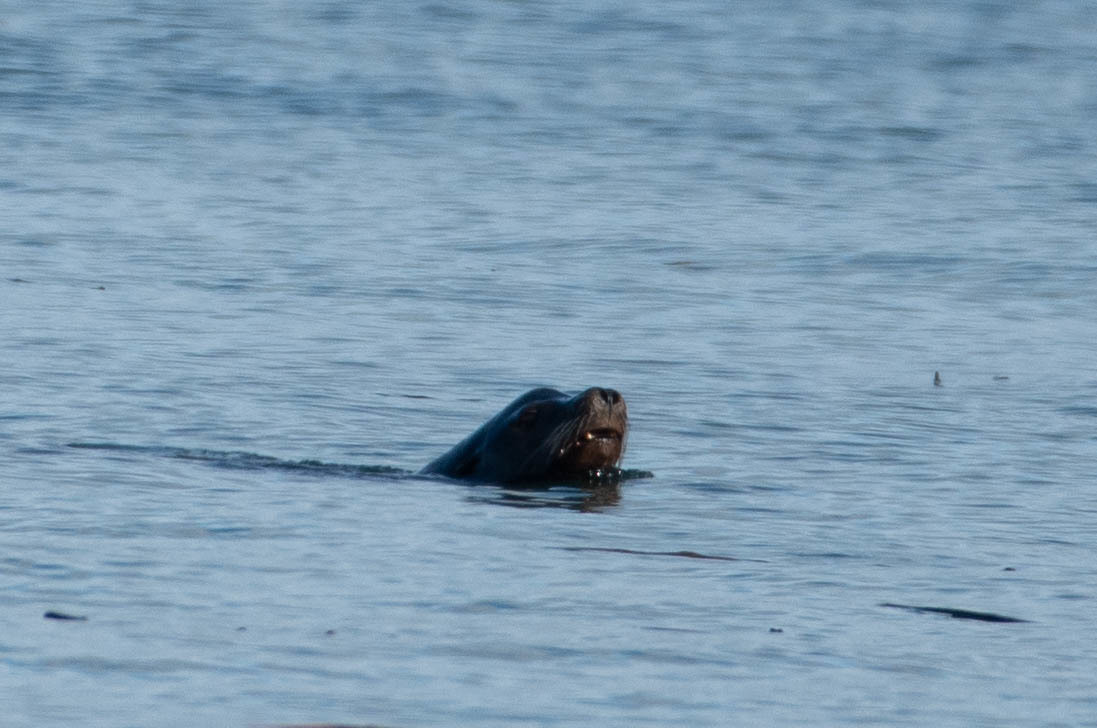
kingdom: Animalia
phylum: Chordata
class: Mammalia
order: Carnivora
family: Otariidae
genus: Zalophus
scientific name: Zalophus californianus
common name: California sea lion
